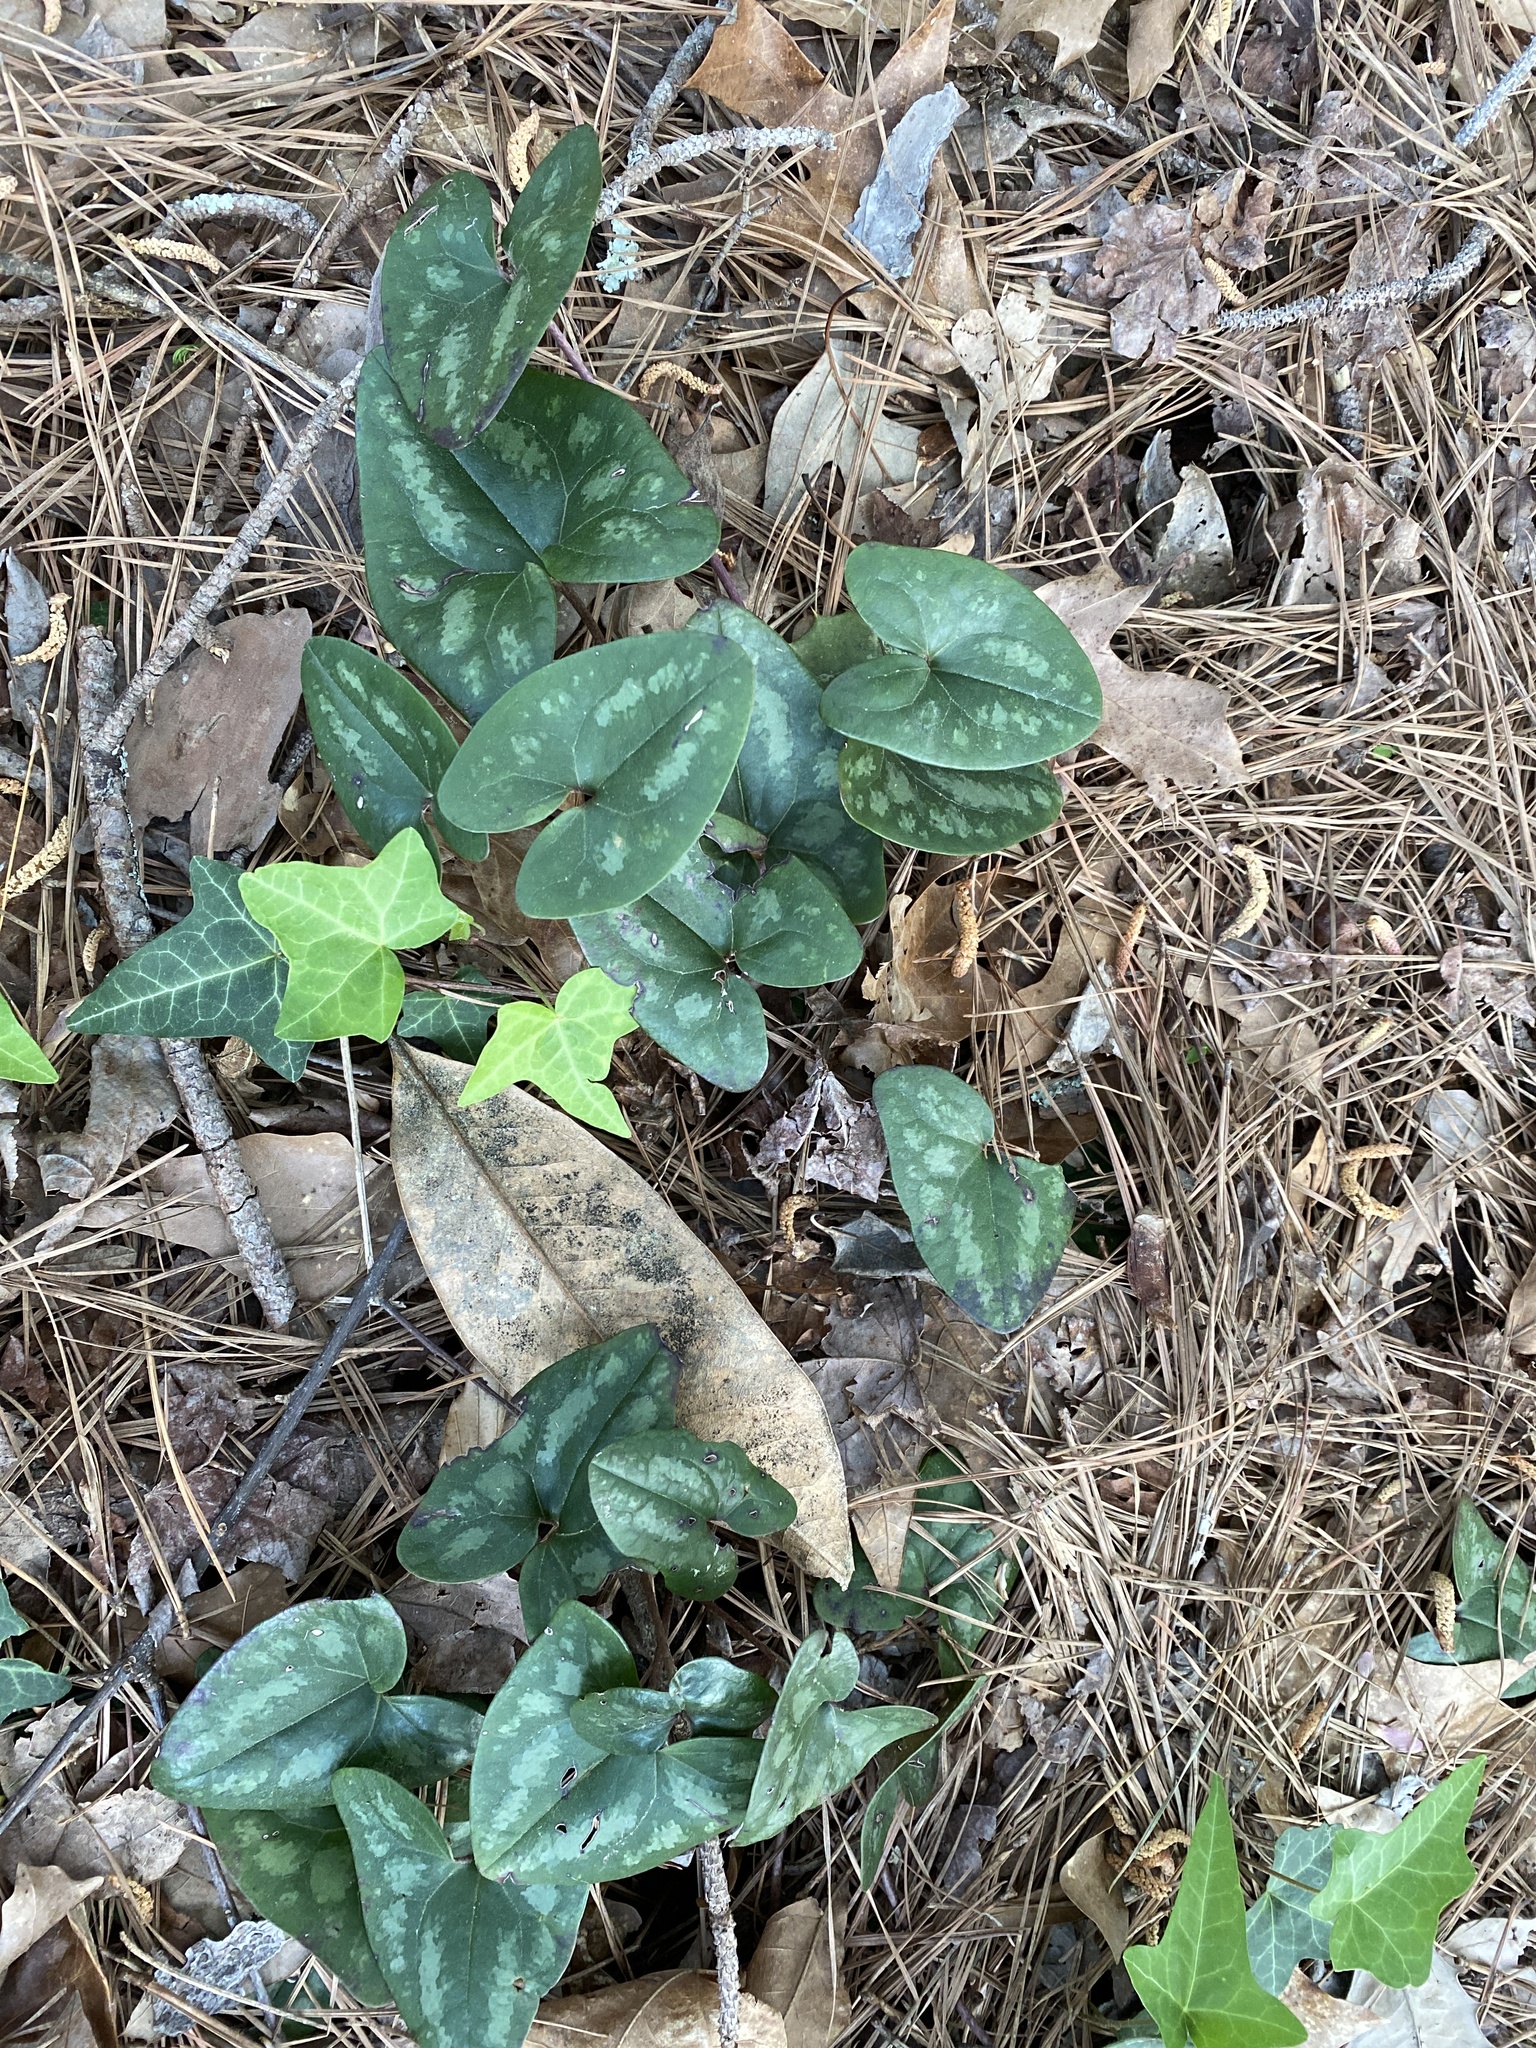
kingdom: Plantae
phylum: Tracheophyta
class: Magnoliopsida
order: Piperales
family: Aristolochiaceae
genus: Hexastylis
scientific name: Hexastylis arifolia
